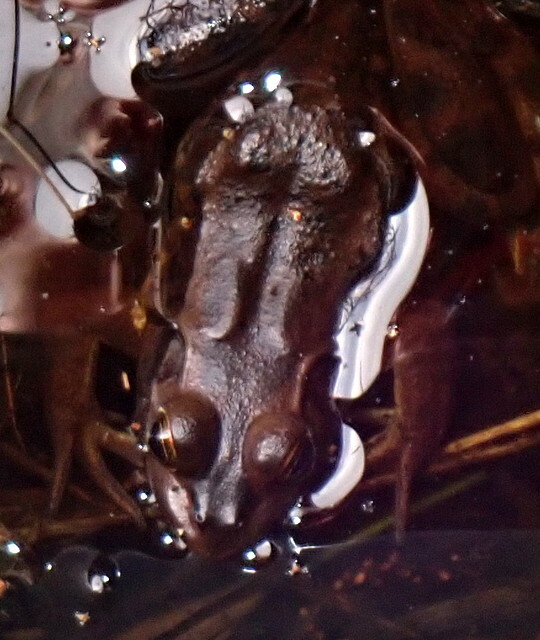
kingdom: Animalia
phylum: Chordata
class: Amphibia
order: Anura
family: Ranidae
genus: Lithobates
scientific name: Lithobates grylio
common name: Pig frog
